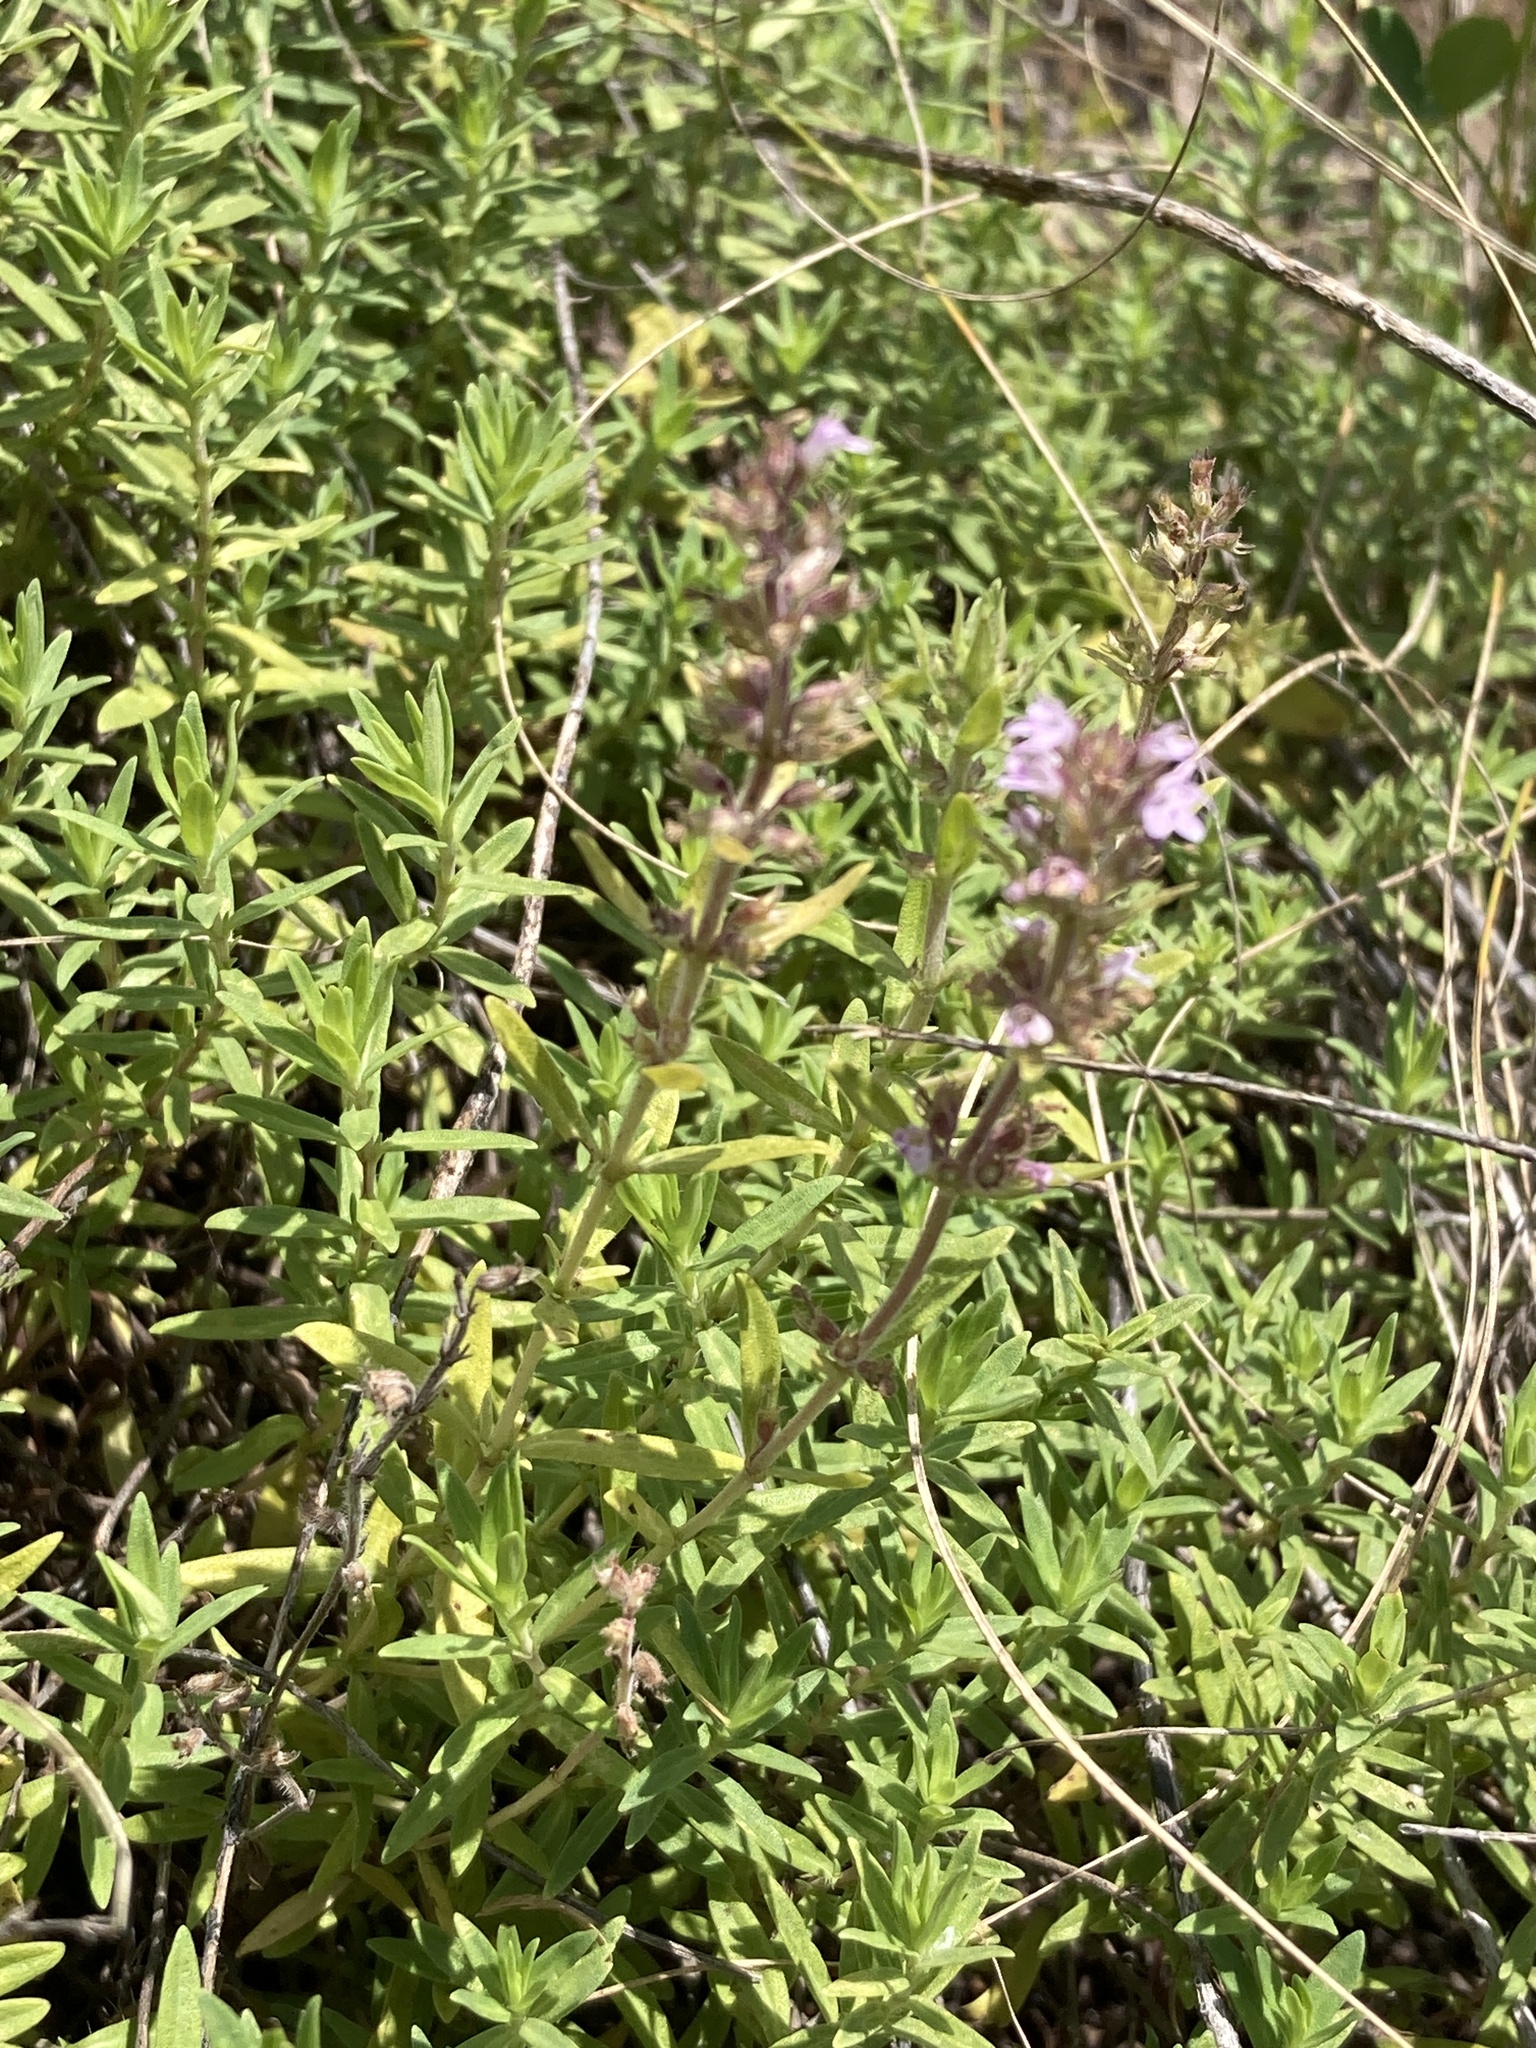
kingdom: Plantae
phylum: Tracheophyta
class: Magnoliopsida
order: Lamiales
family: Lamiaceae
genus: Thymus
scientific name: Thymus pannonicus
